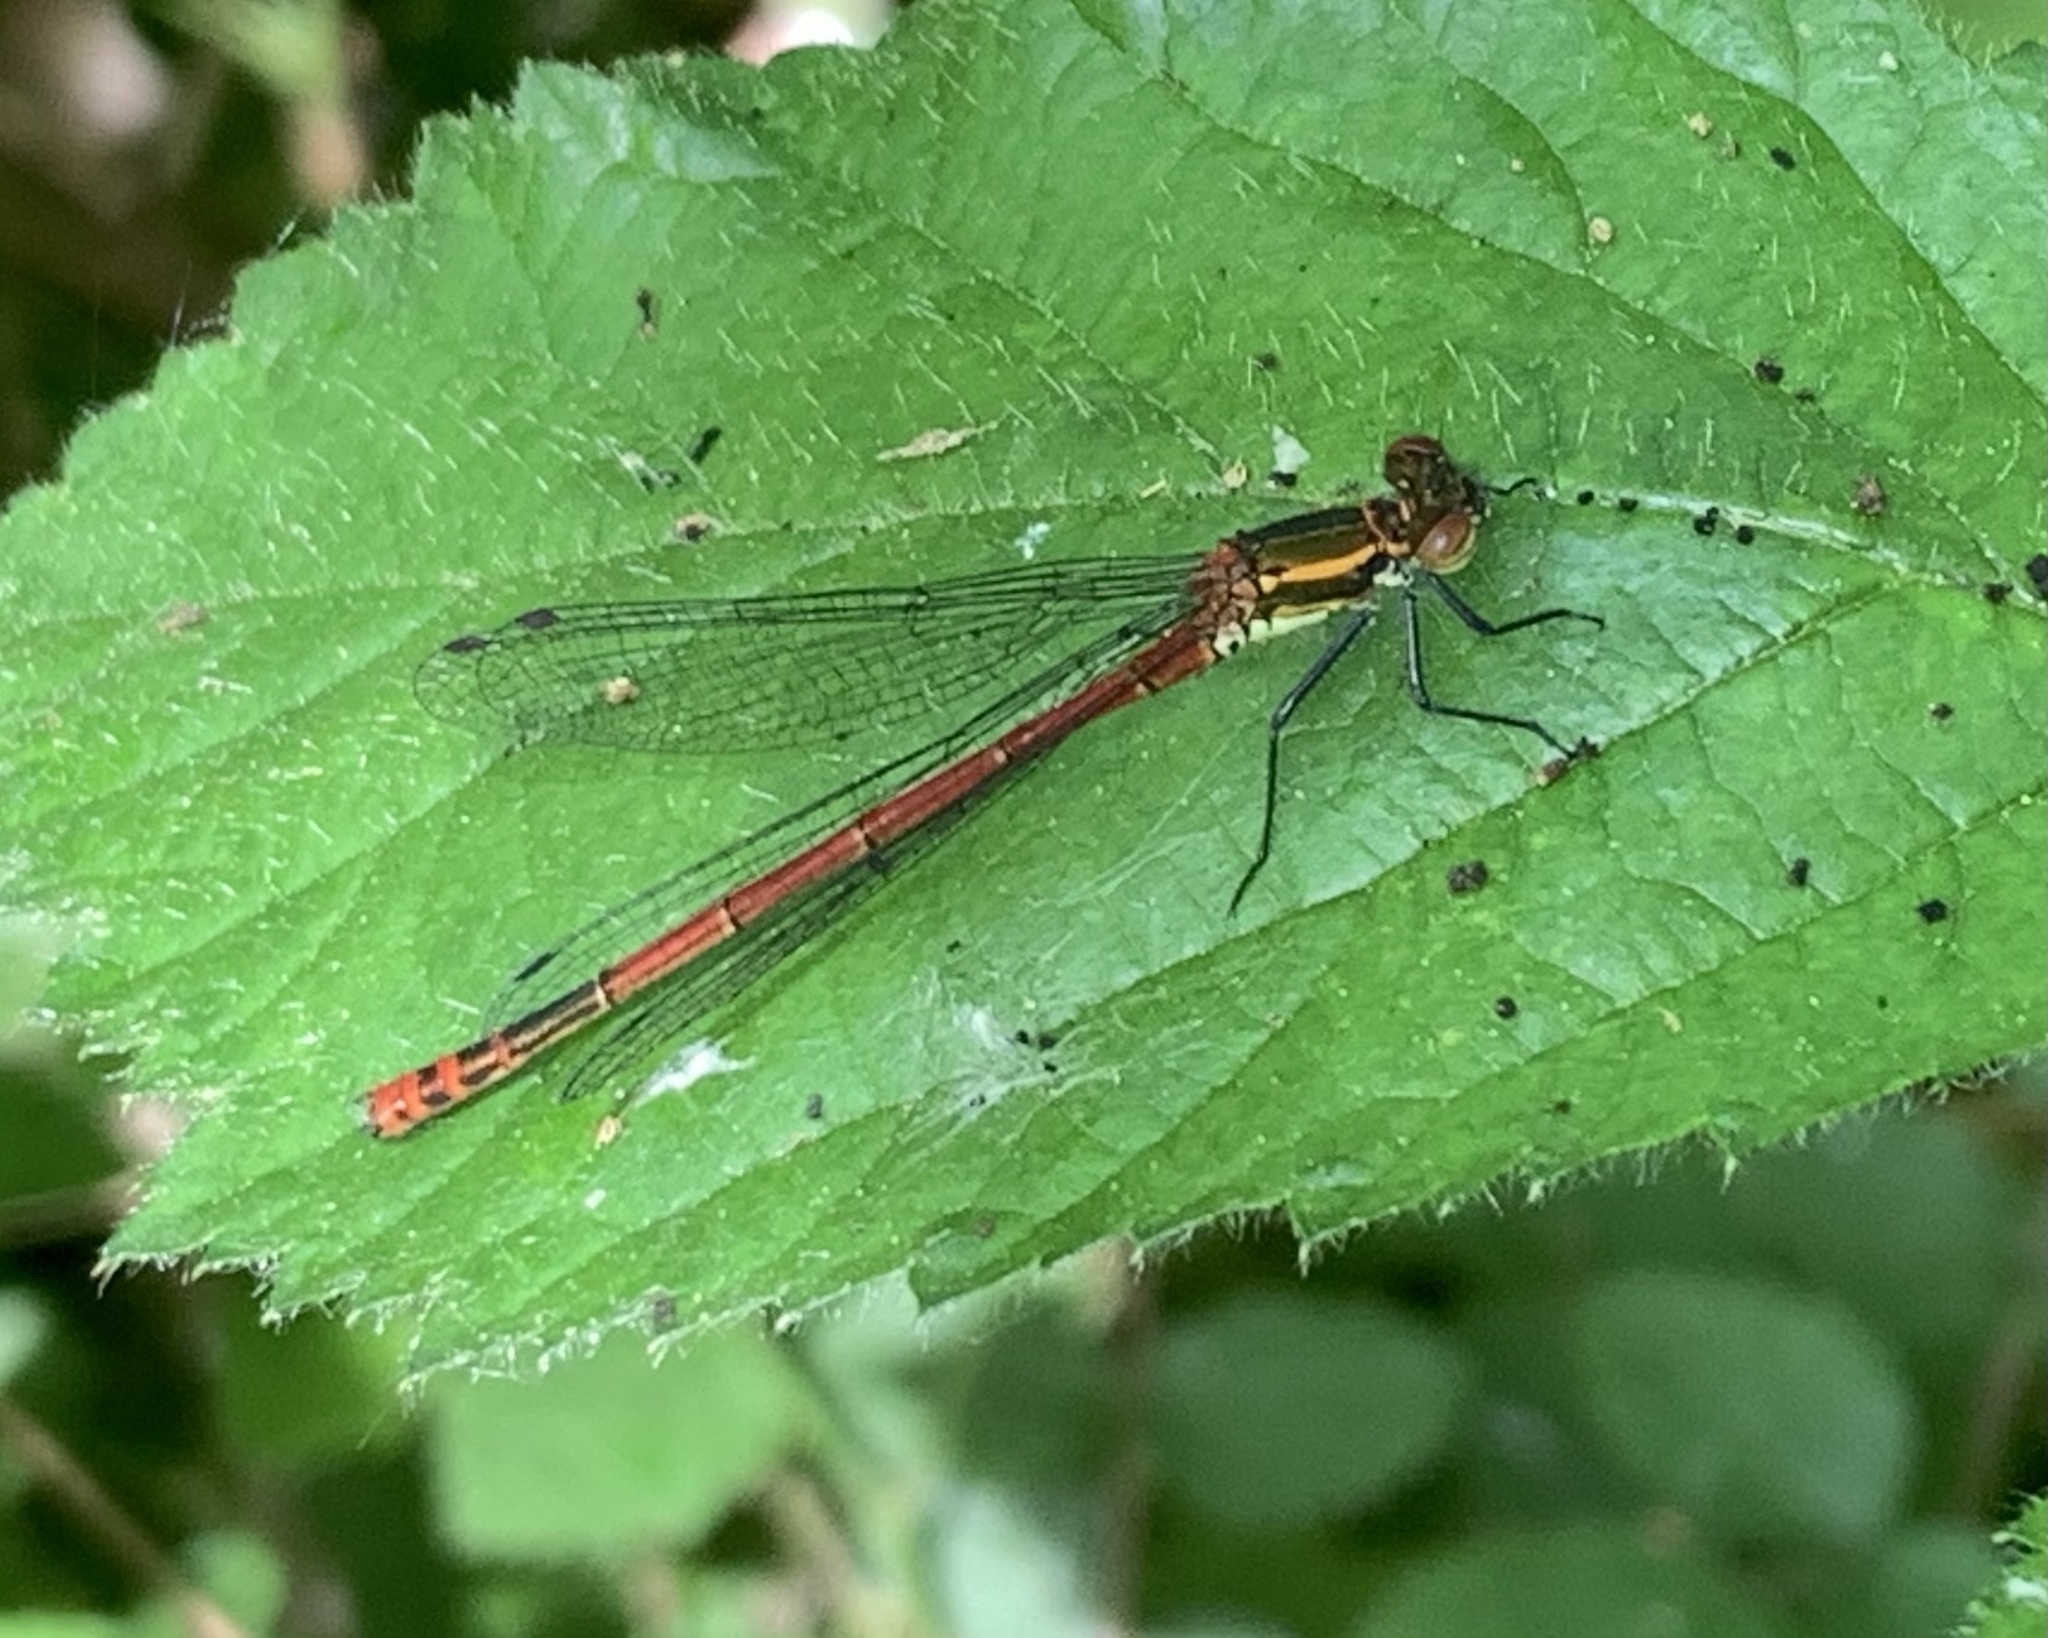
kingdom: Animalia
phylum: Arthropoda
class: Insecta
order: Odonata
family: Coenagrionidae
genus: Pyrrhosoma
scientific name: Pyrrhosoma nymphula
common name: Large red damsel
